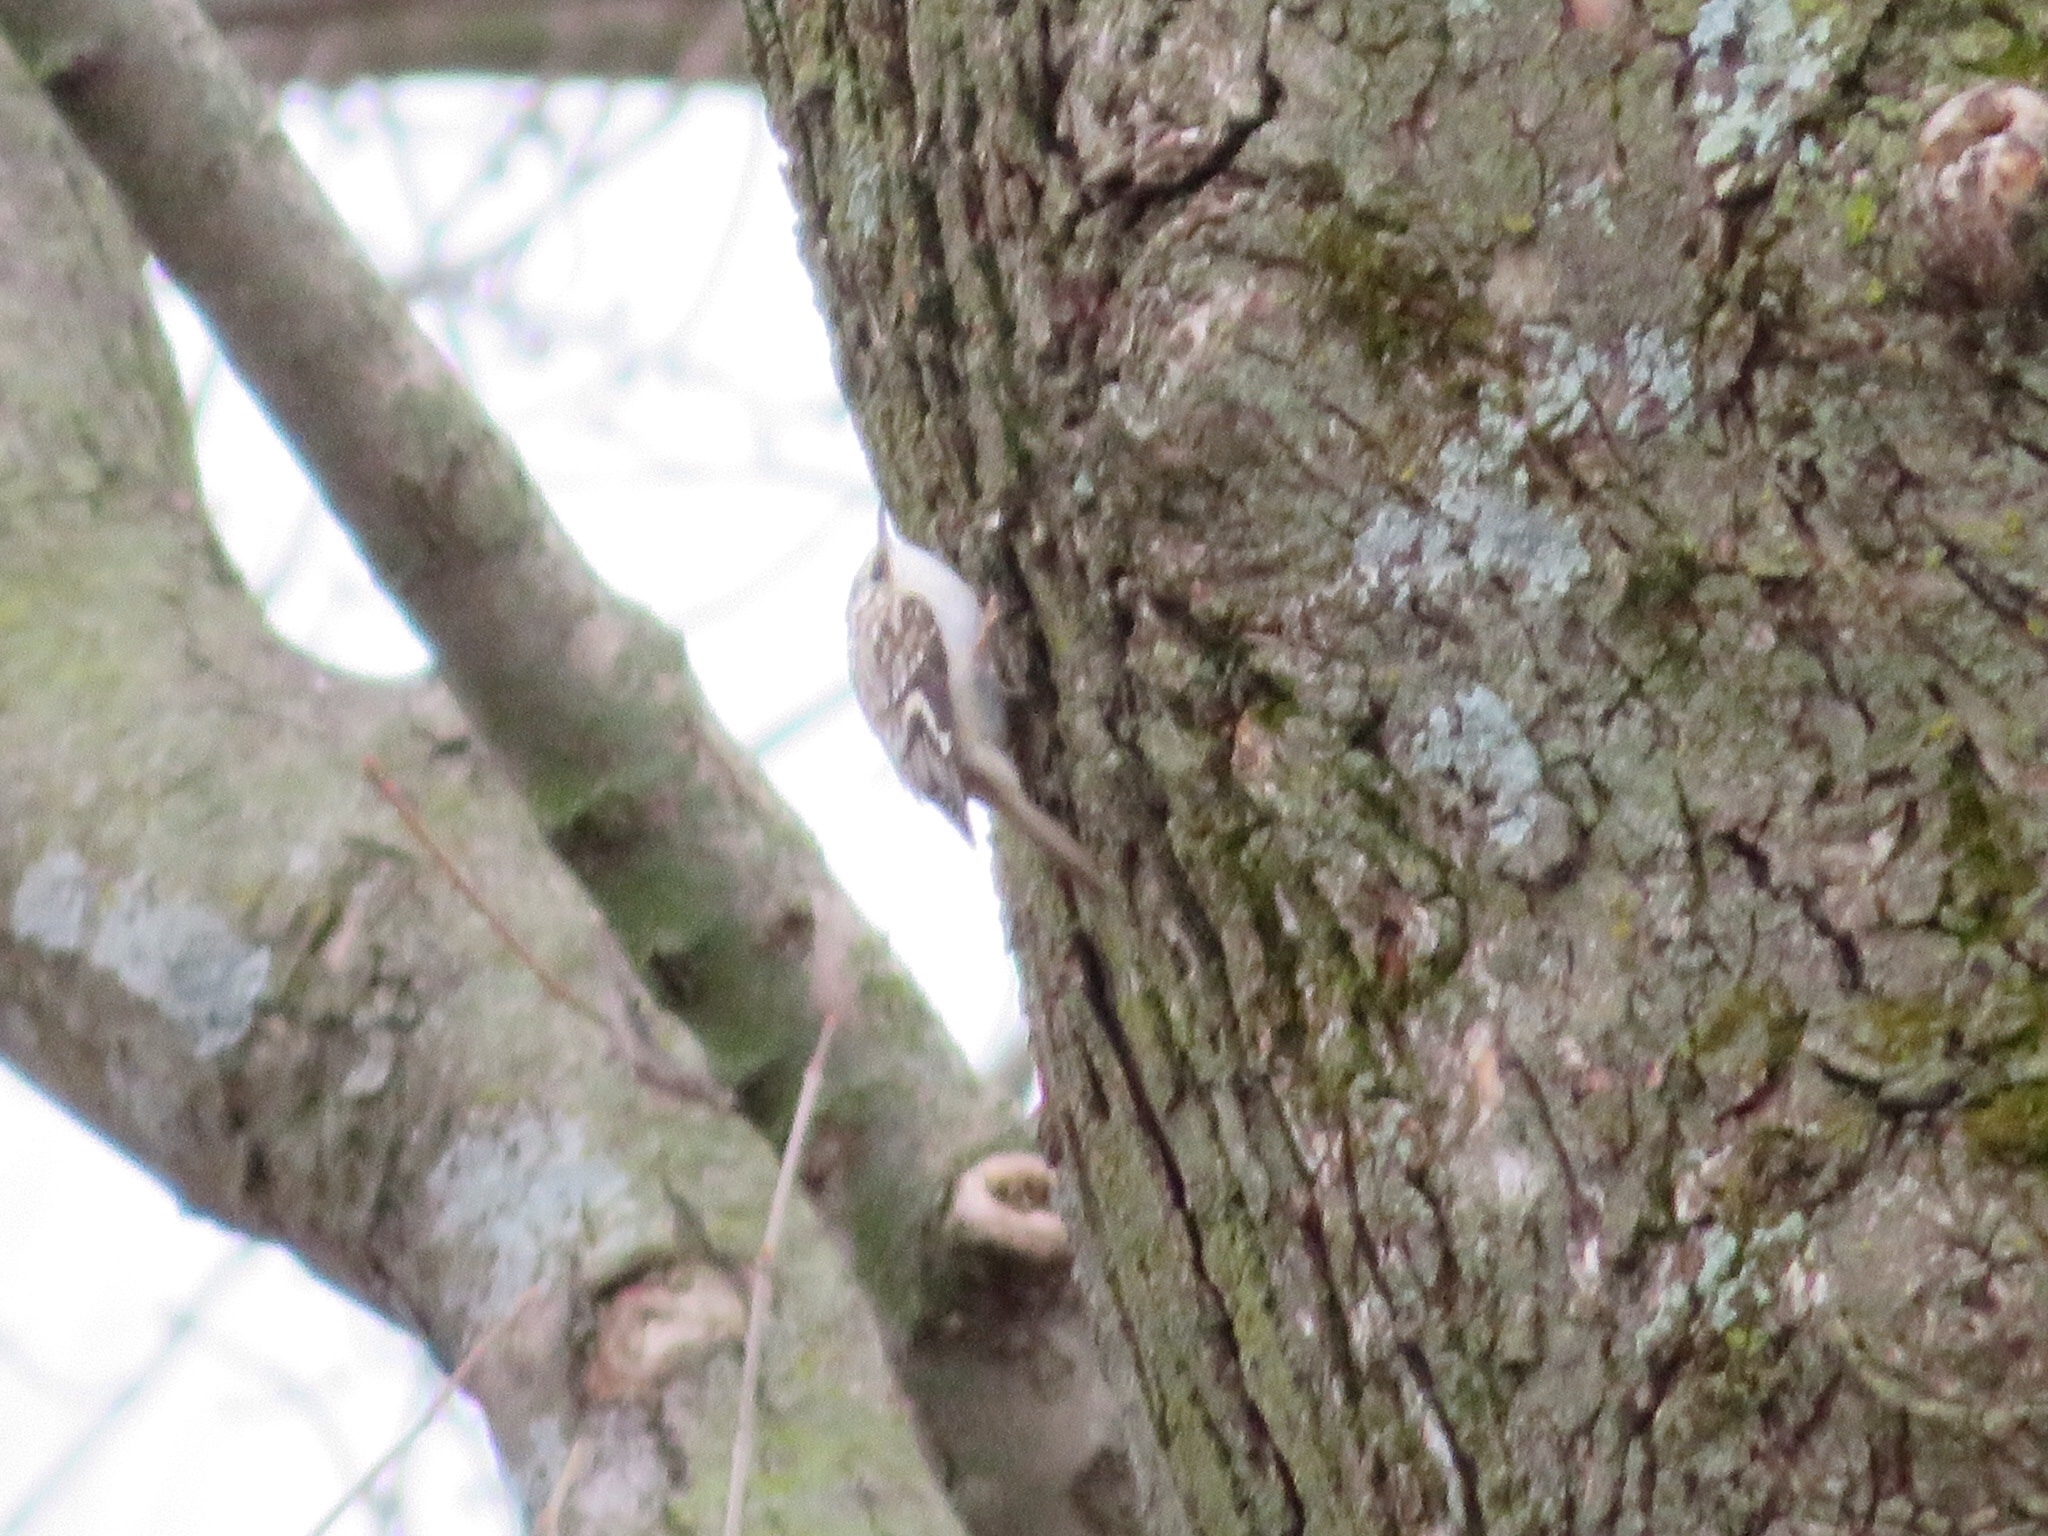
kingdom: Animalia
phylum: Chordata
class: Aves
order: Passeriformes
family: Certhiidae
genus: Certhia
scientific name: Certhia americana
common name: Brown creeper
